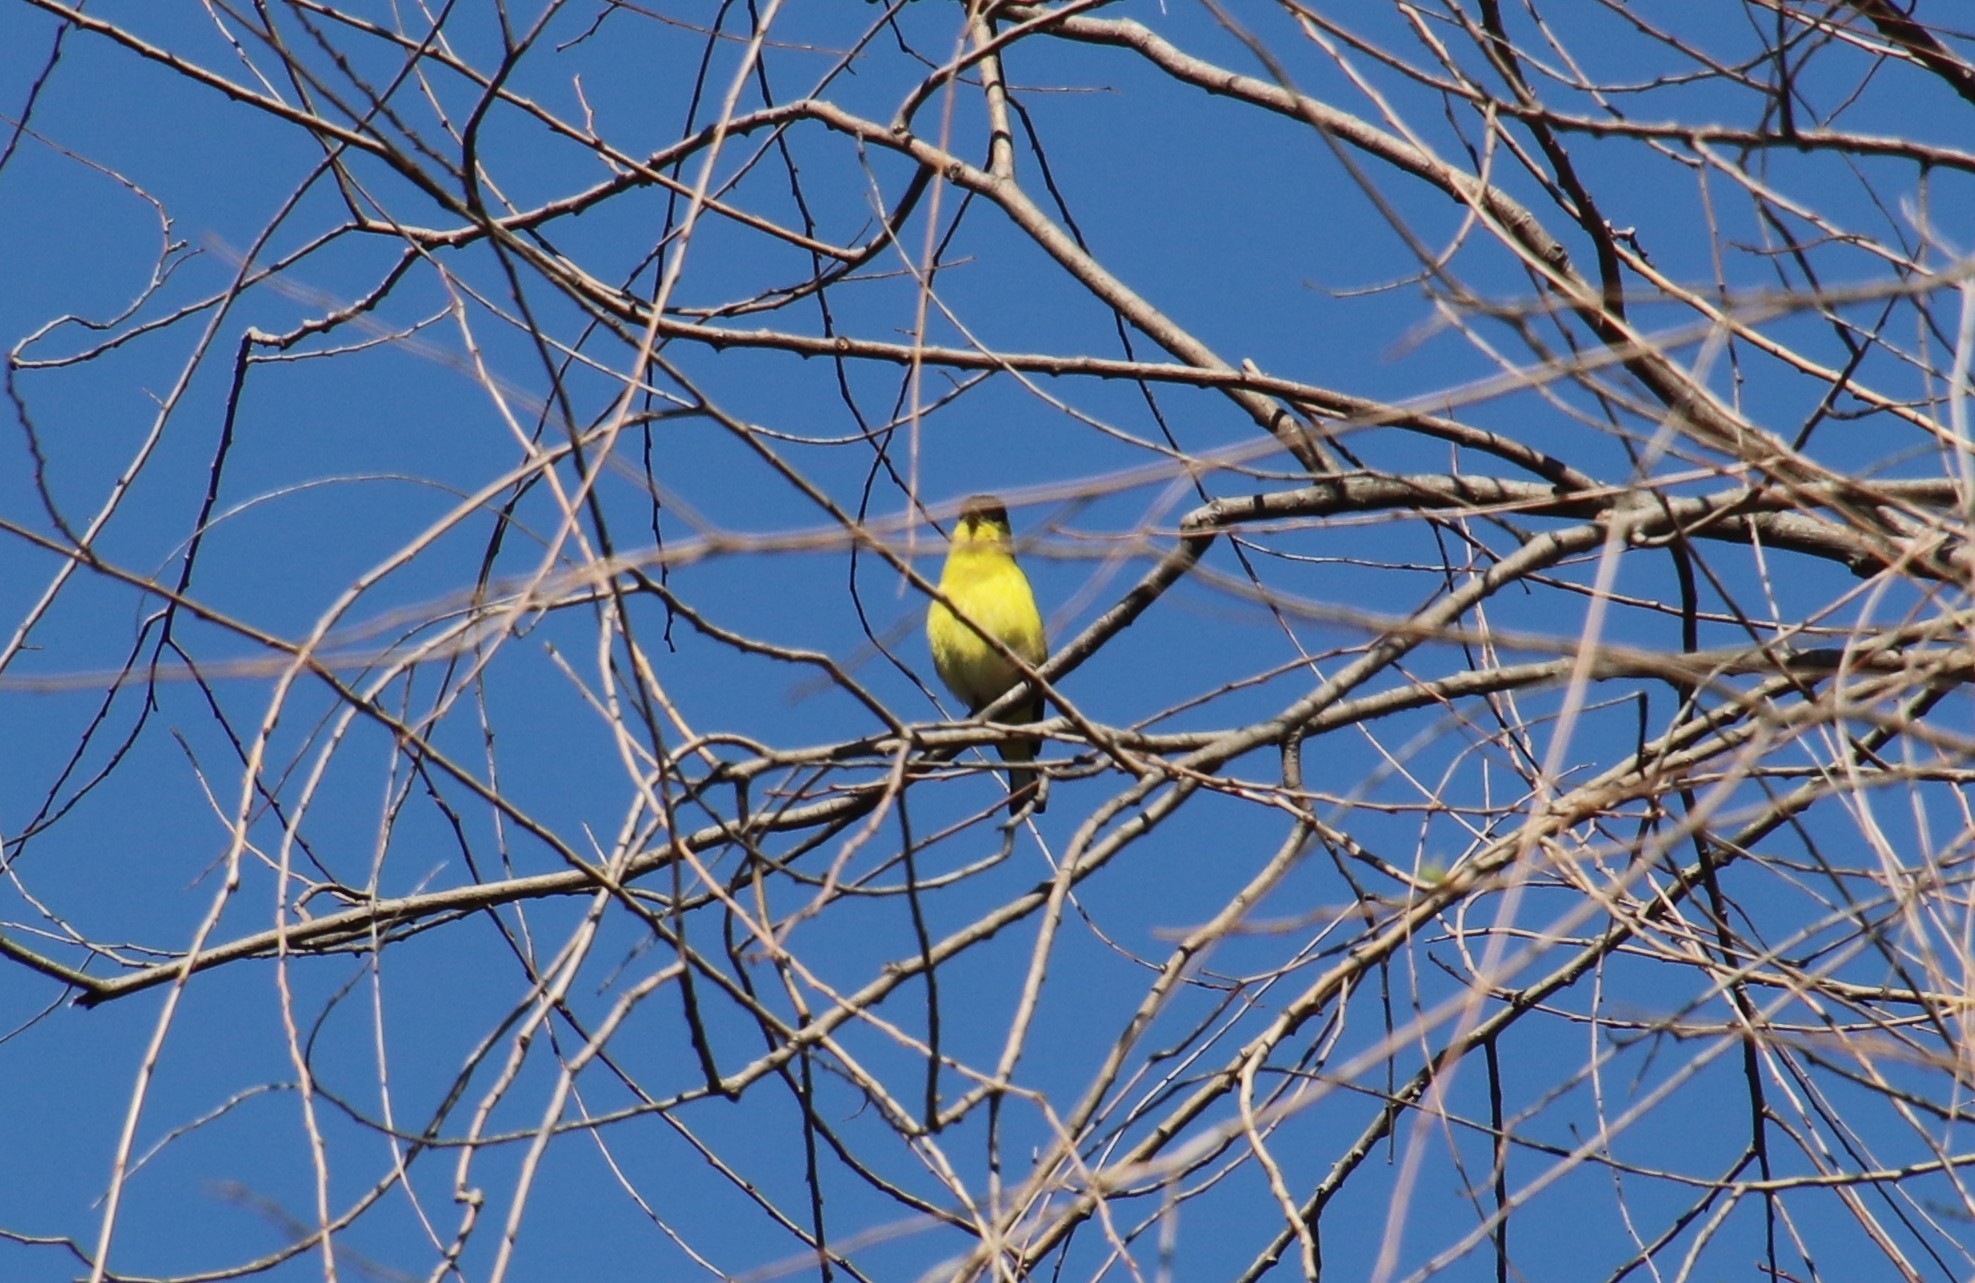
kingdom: Animalia
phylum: Chordata
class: Aves
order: Passeriformes
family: Fringillidae
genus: Spinus
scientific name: Spinus psaltria
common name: Lesser goldfinch
